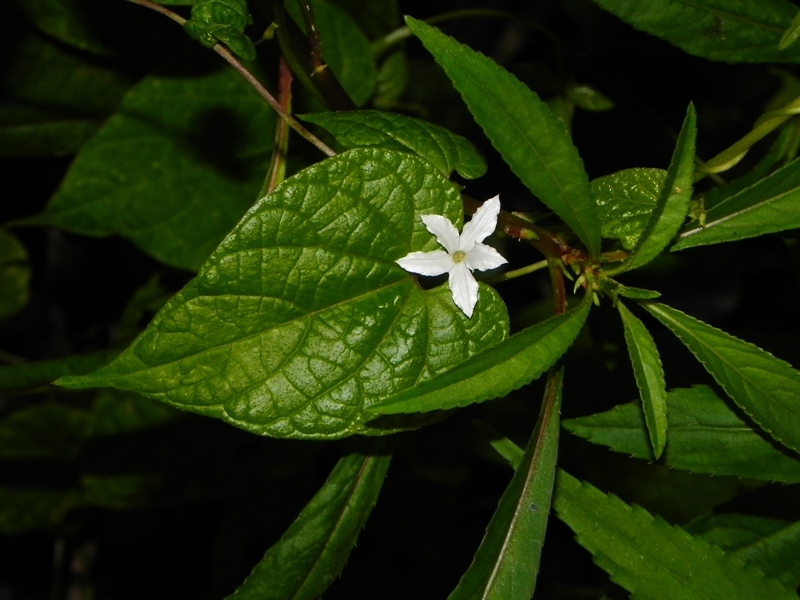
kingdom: Plantae
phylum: Tracheophyta
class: Magnoliopsida
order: Solanales
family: Convolvulaceae
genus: Dinetus
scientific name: Dinetus racemosus
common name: Snowcreeper
